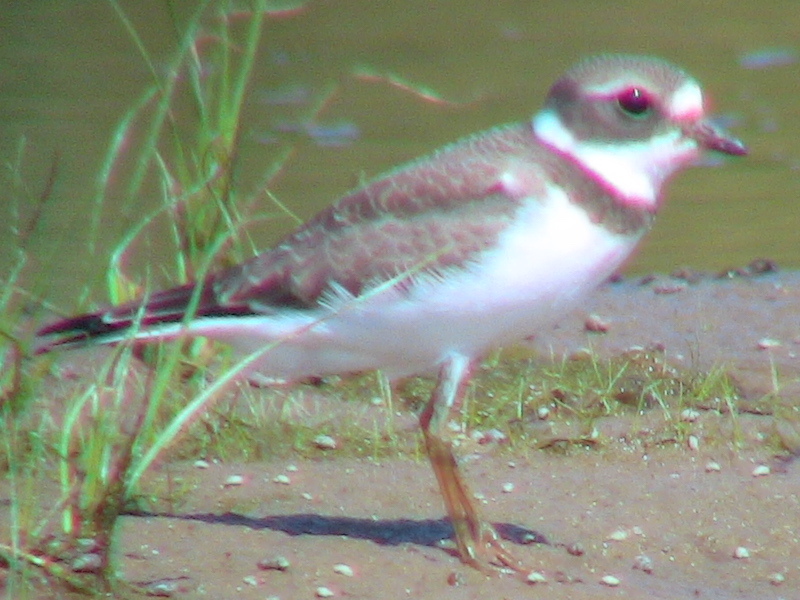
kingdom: Animalia
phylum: Chordata
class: Aves
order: Charadriiformes
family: Charadriidae
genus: Charadrius
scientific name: Charadrius semipalmatus
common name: Semipalmated plover
